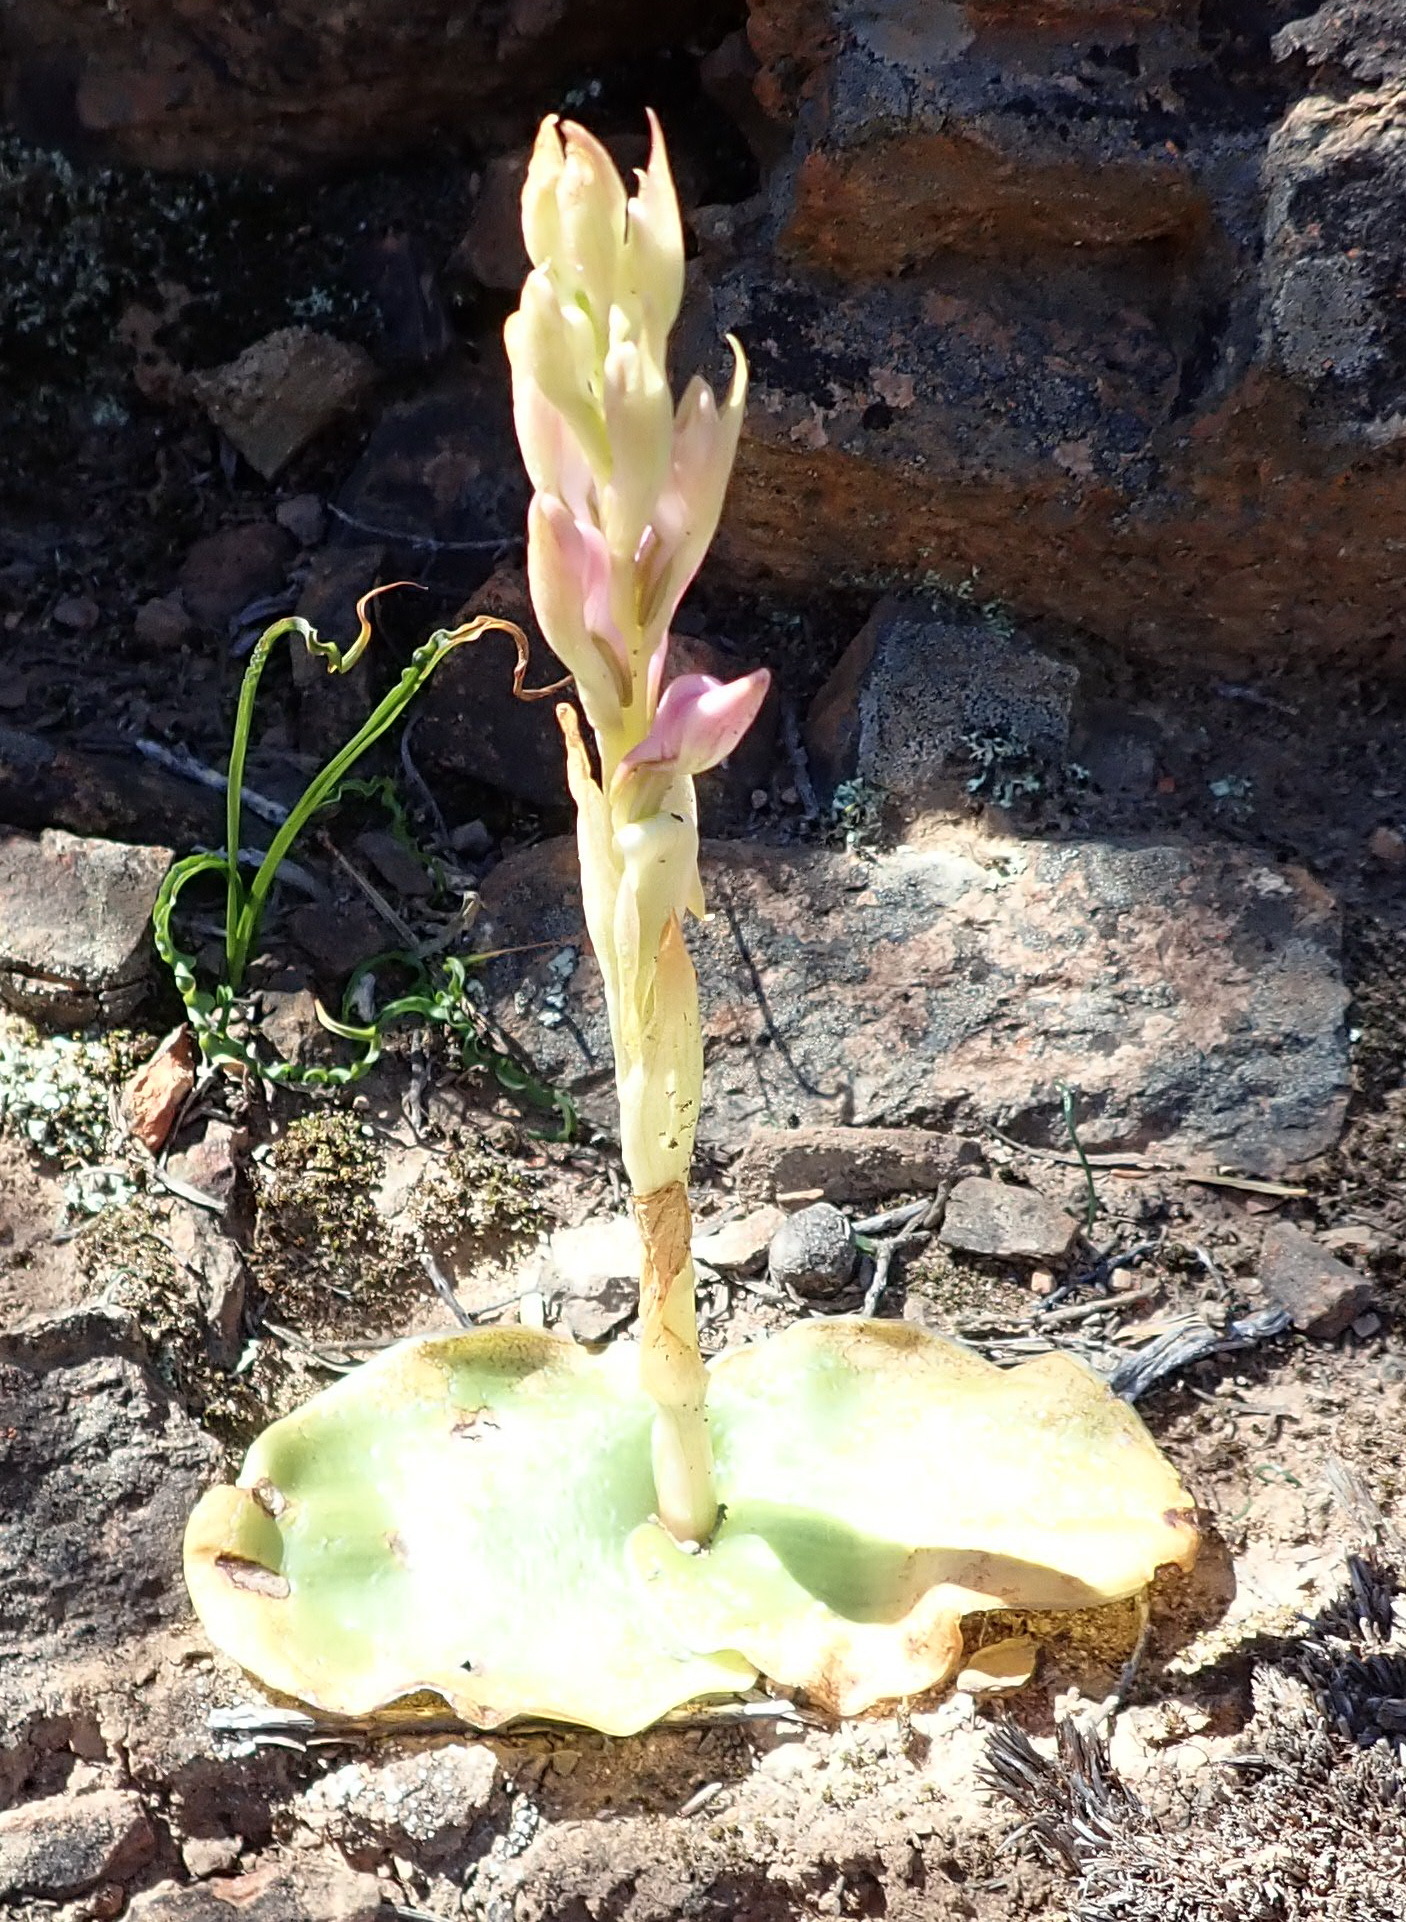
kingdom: Plantae
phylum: Tracheophyta
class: Liliopsida
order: Asparagales
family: Orchidaceae
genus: Satyrium
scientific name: Satyrium erectum
